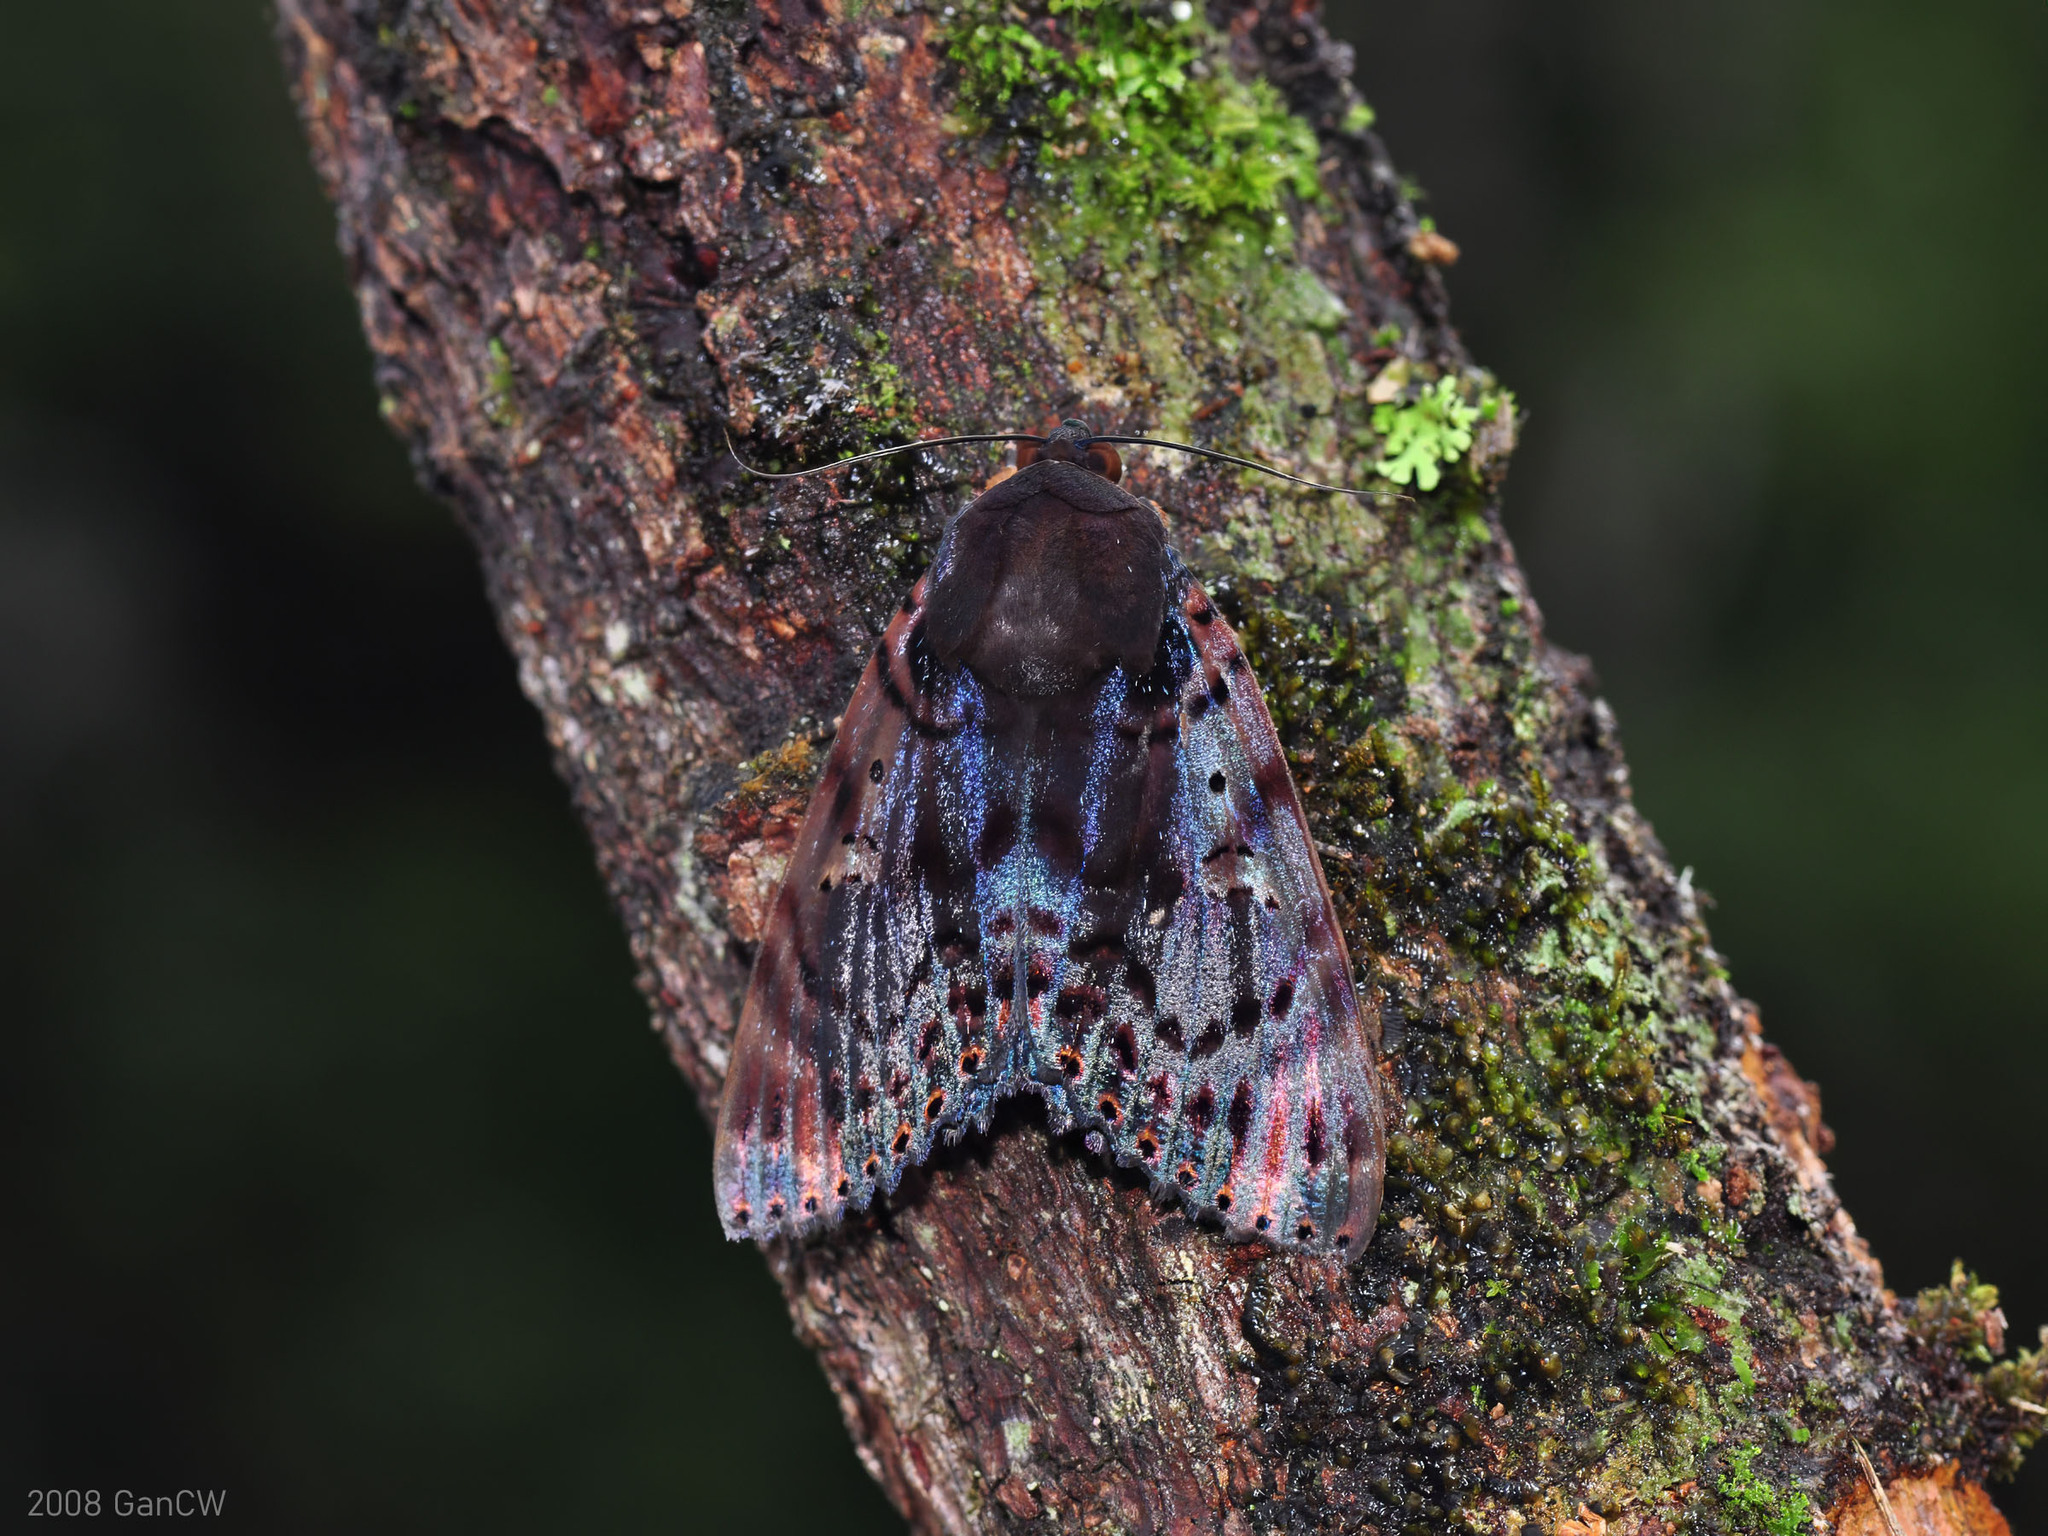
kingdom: Animalia
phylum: Arthropoda
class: Insecta
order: Lepidoptera
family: Erebidae
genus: Arcte
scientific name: Arcte modesta
